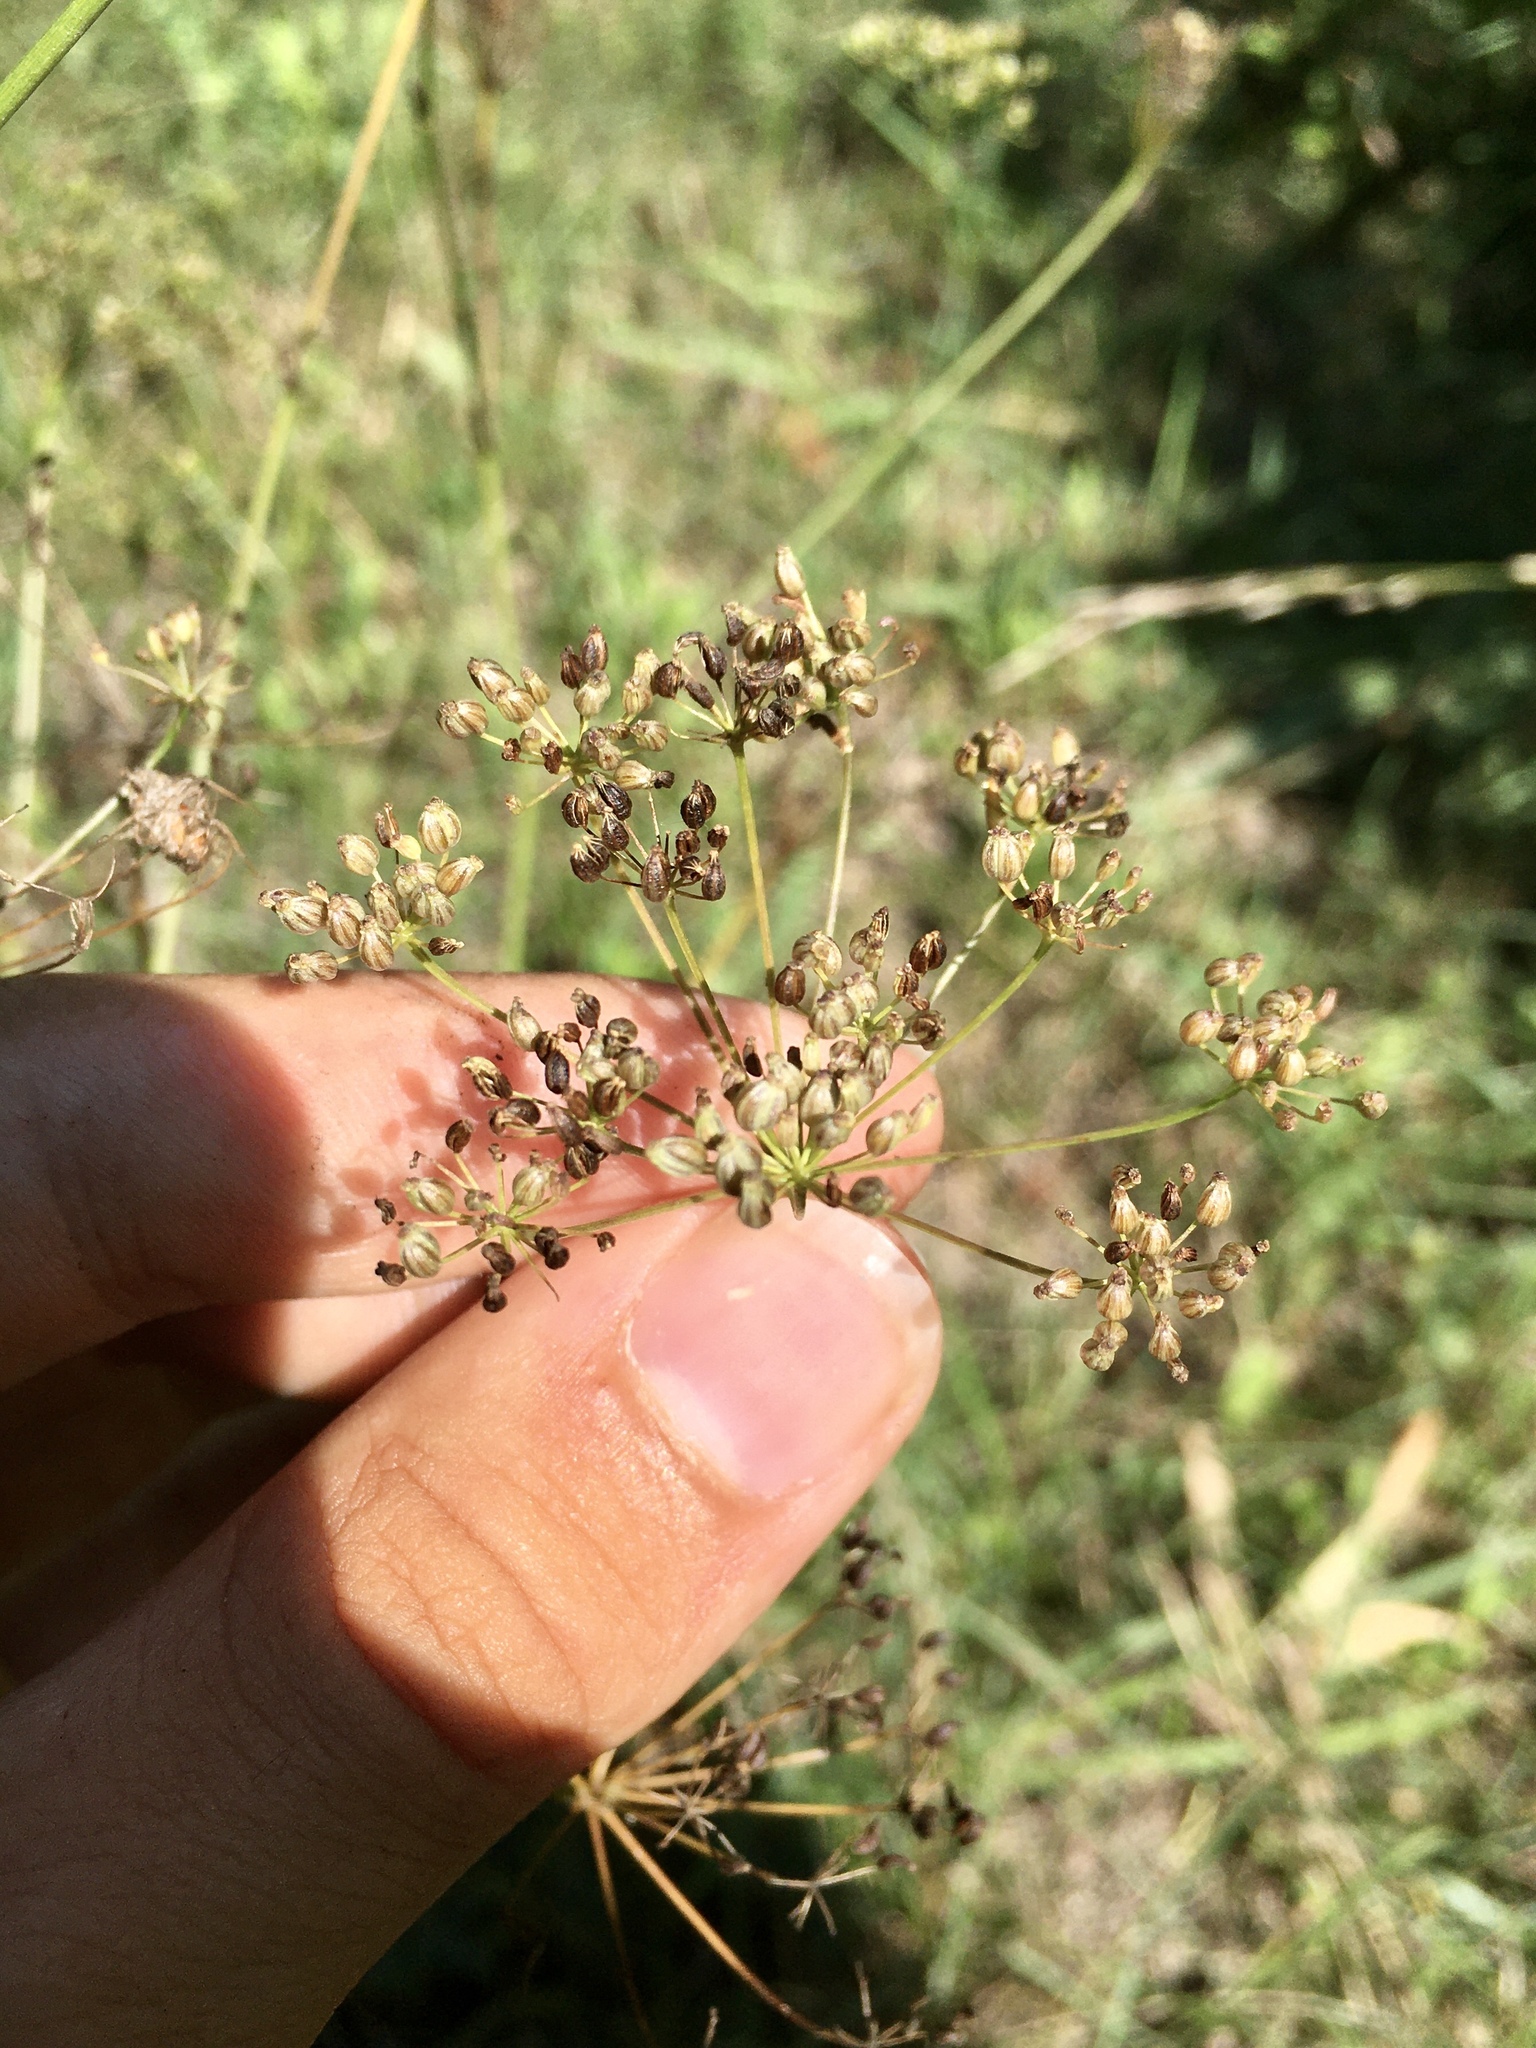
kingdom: Plantae
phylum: Tracheophyta
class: Magnoliopsida
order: Apiales
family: Apiaceae
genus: Pimpinella
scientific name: Pimpinella saxifraga
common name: Burnet-saxifrage
